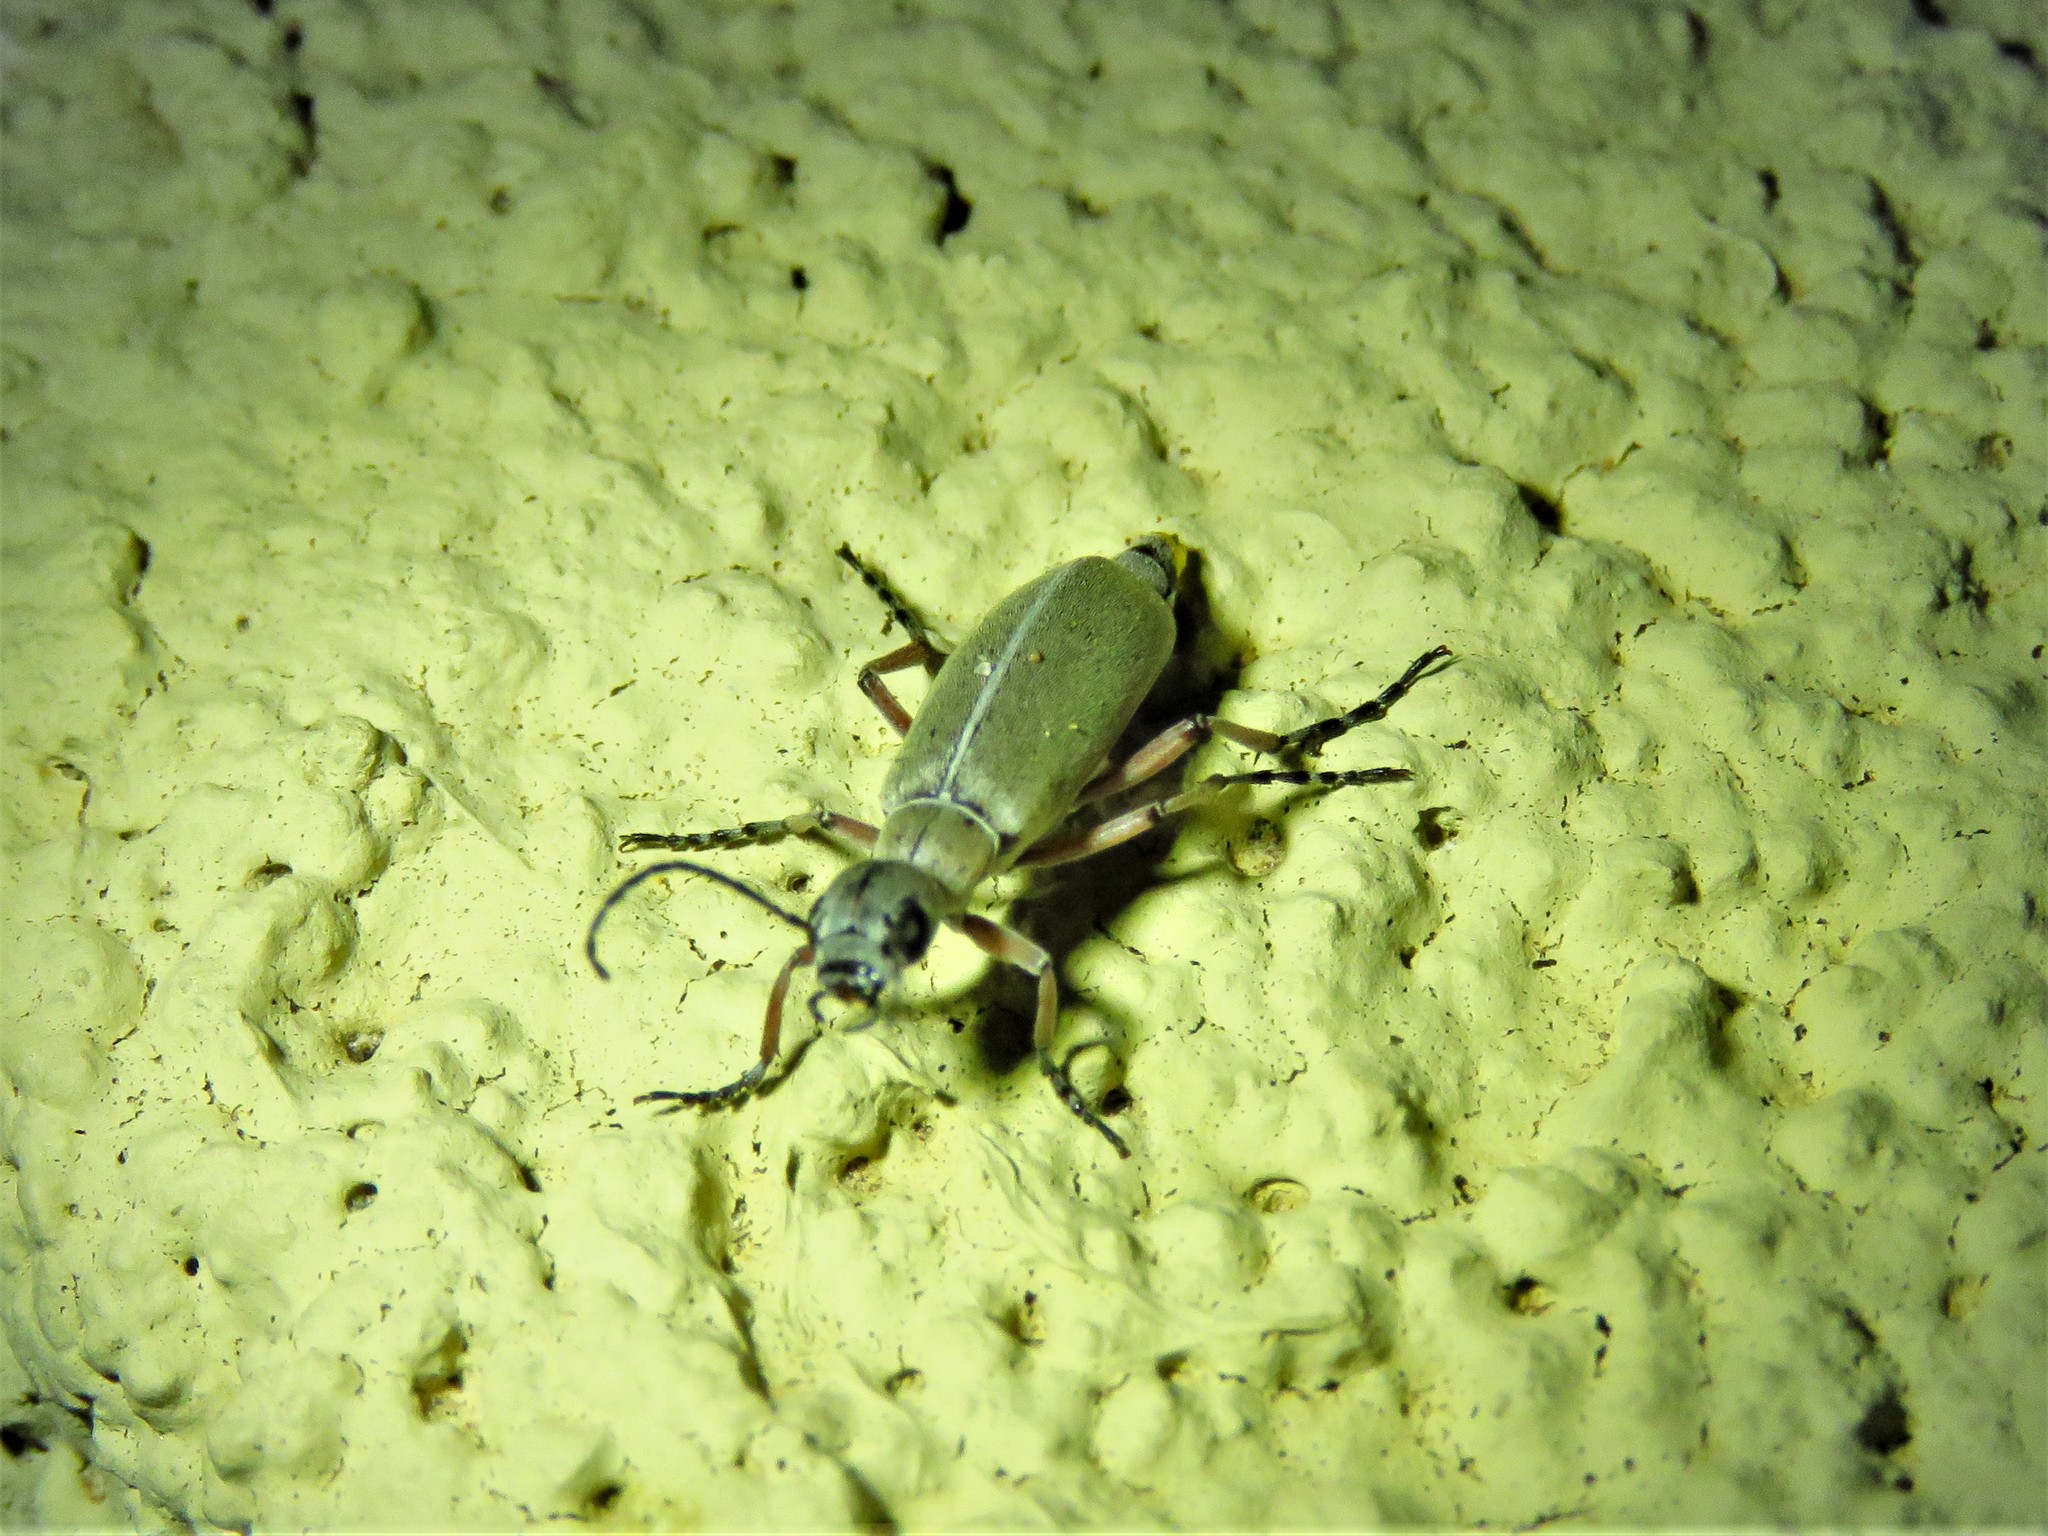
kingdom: Animalia
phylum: Arthropoda
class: Insecta
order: Coleoptera
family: Meloidae
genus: Epicauta
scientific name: Epicauta nigritarsis
